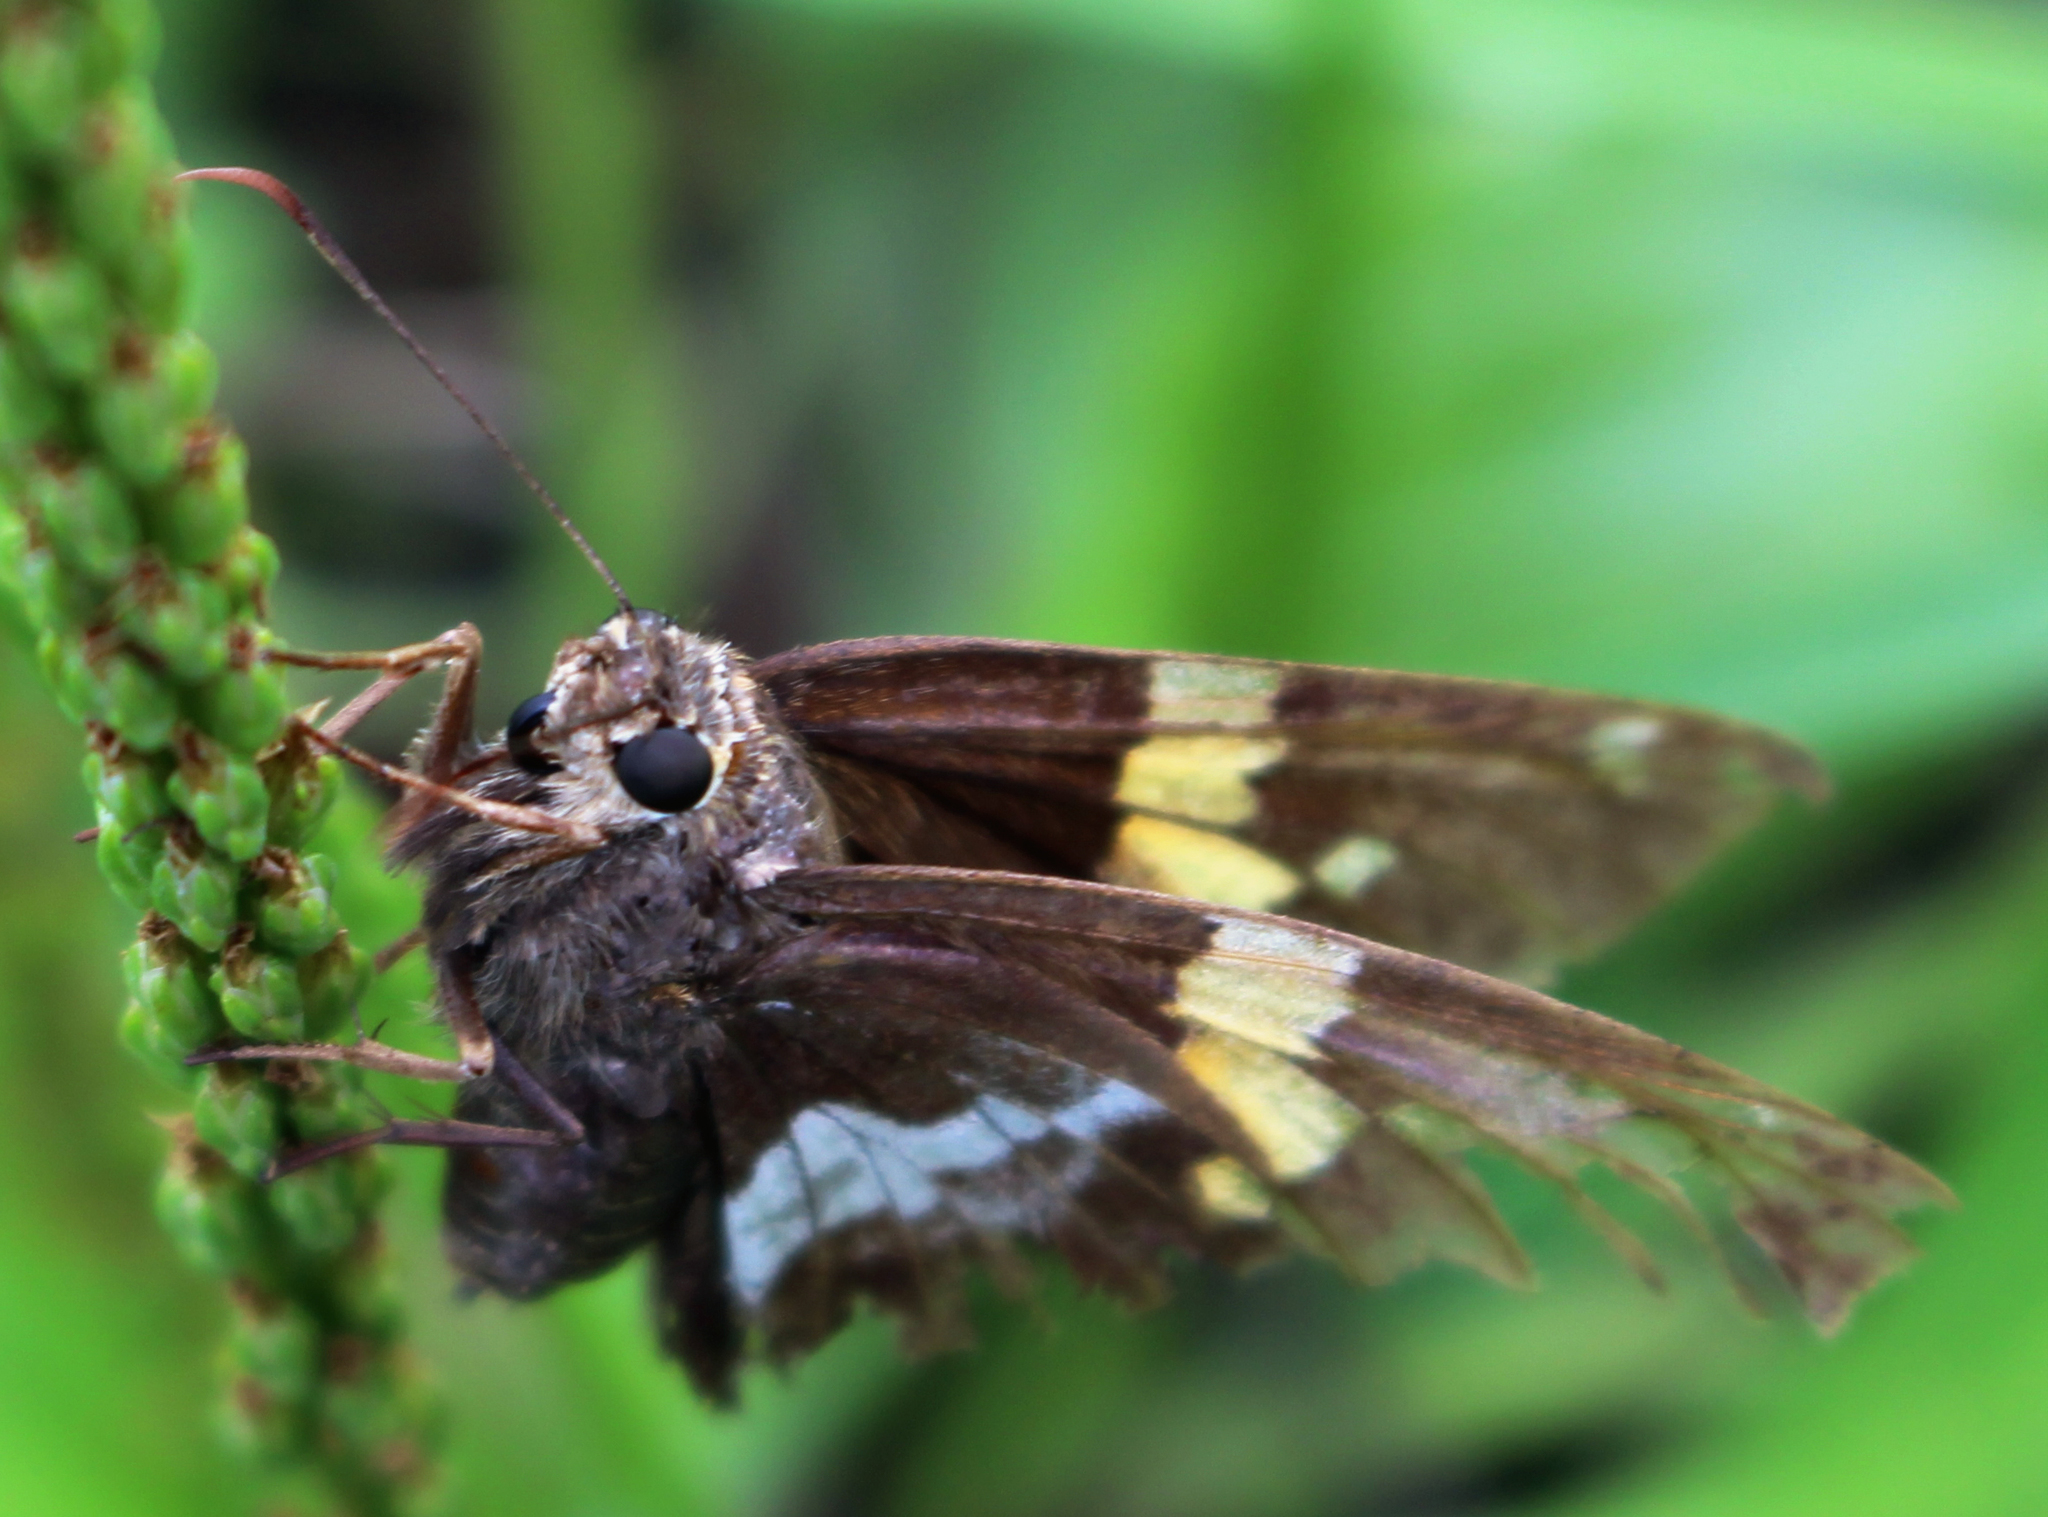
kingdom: Animalia
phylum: Arthropoda
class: Insecta
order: Lepidoptera
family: Hesperiidae
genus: Epargyreus
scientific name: Epargyreus clarus
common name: Silver-spotted skipper
